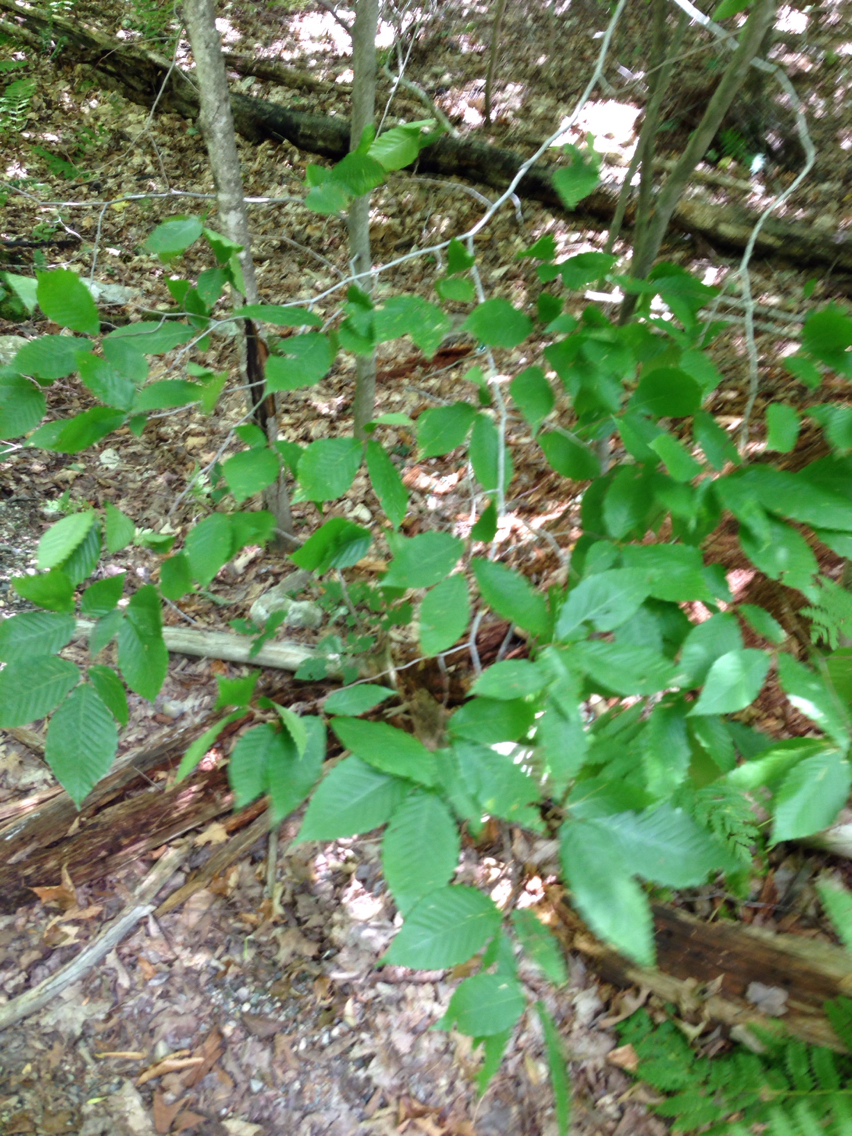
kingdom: Plantae
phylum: Tracheophyta
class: Magnoliopsida
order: Fagales
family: Fagaceae
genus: Fagus
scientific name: Fagus grandifolia
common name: American beech
